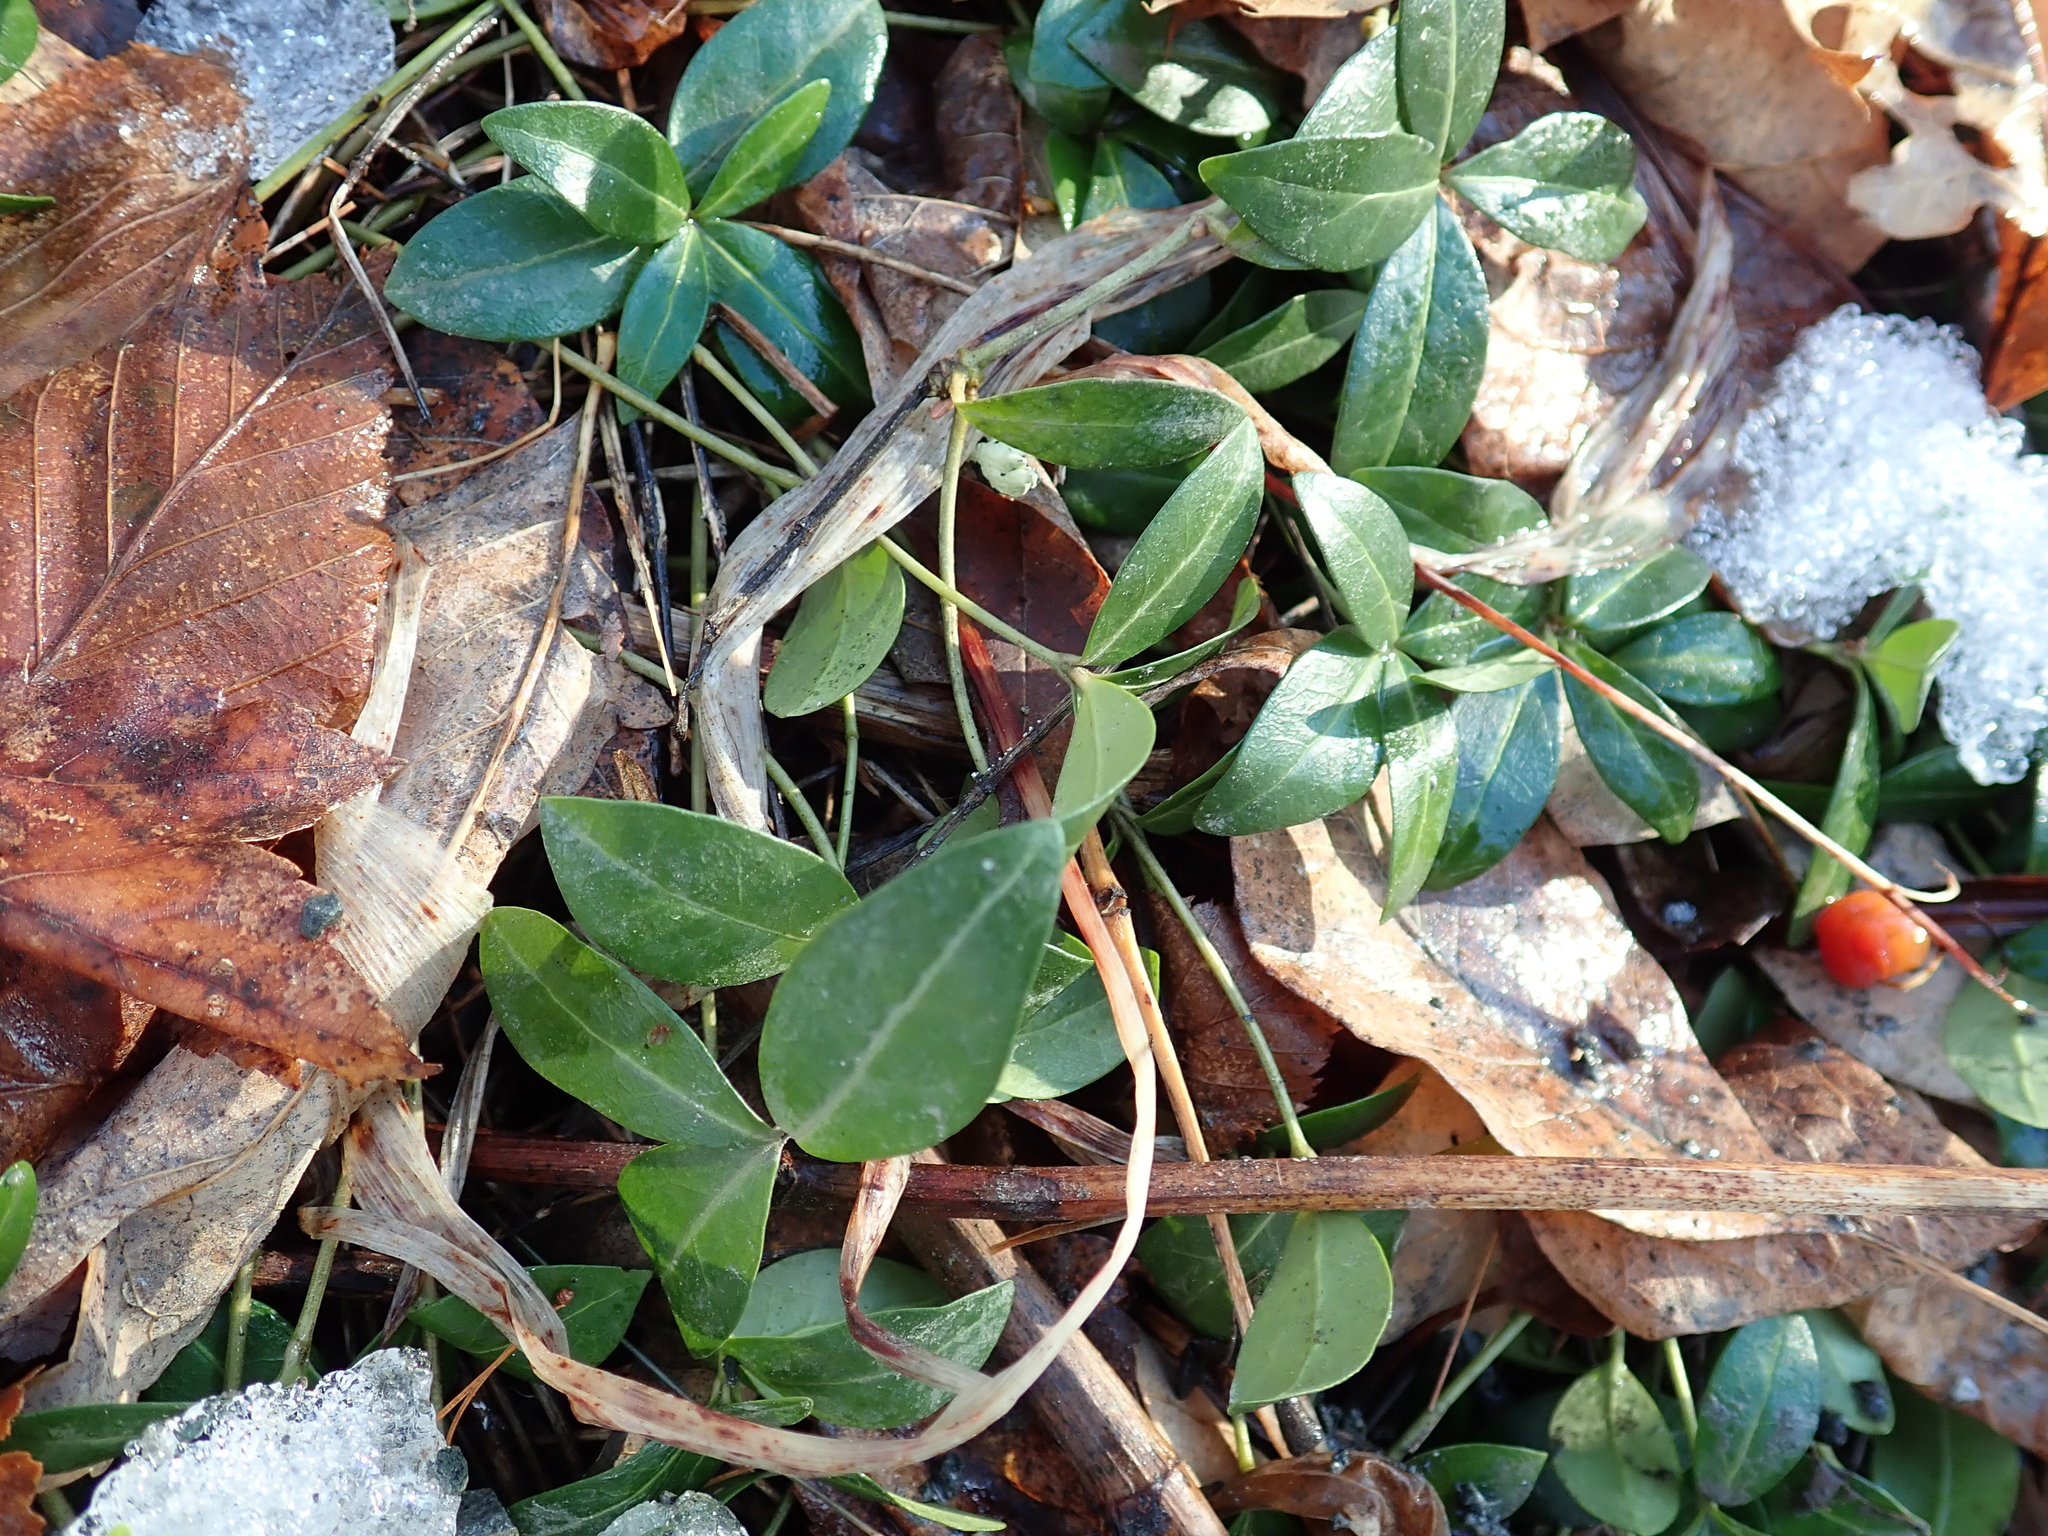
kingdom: Plantae
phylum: Tracheophyta
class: Magnoliopsida
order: Gentianales
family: Apocynaceae
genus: Vinca
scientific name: Vinca minor
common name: Lesser periwinkle
